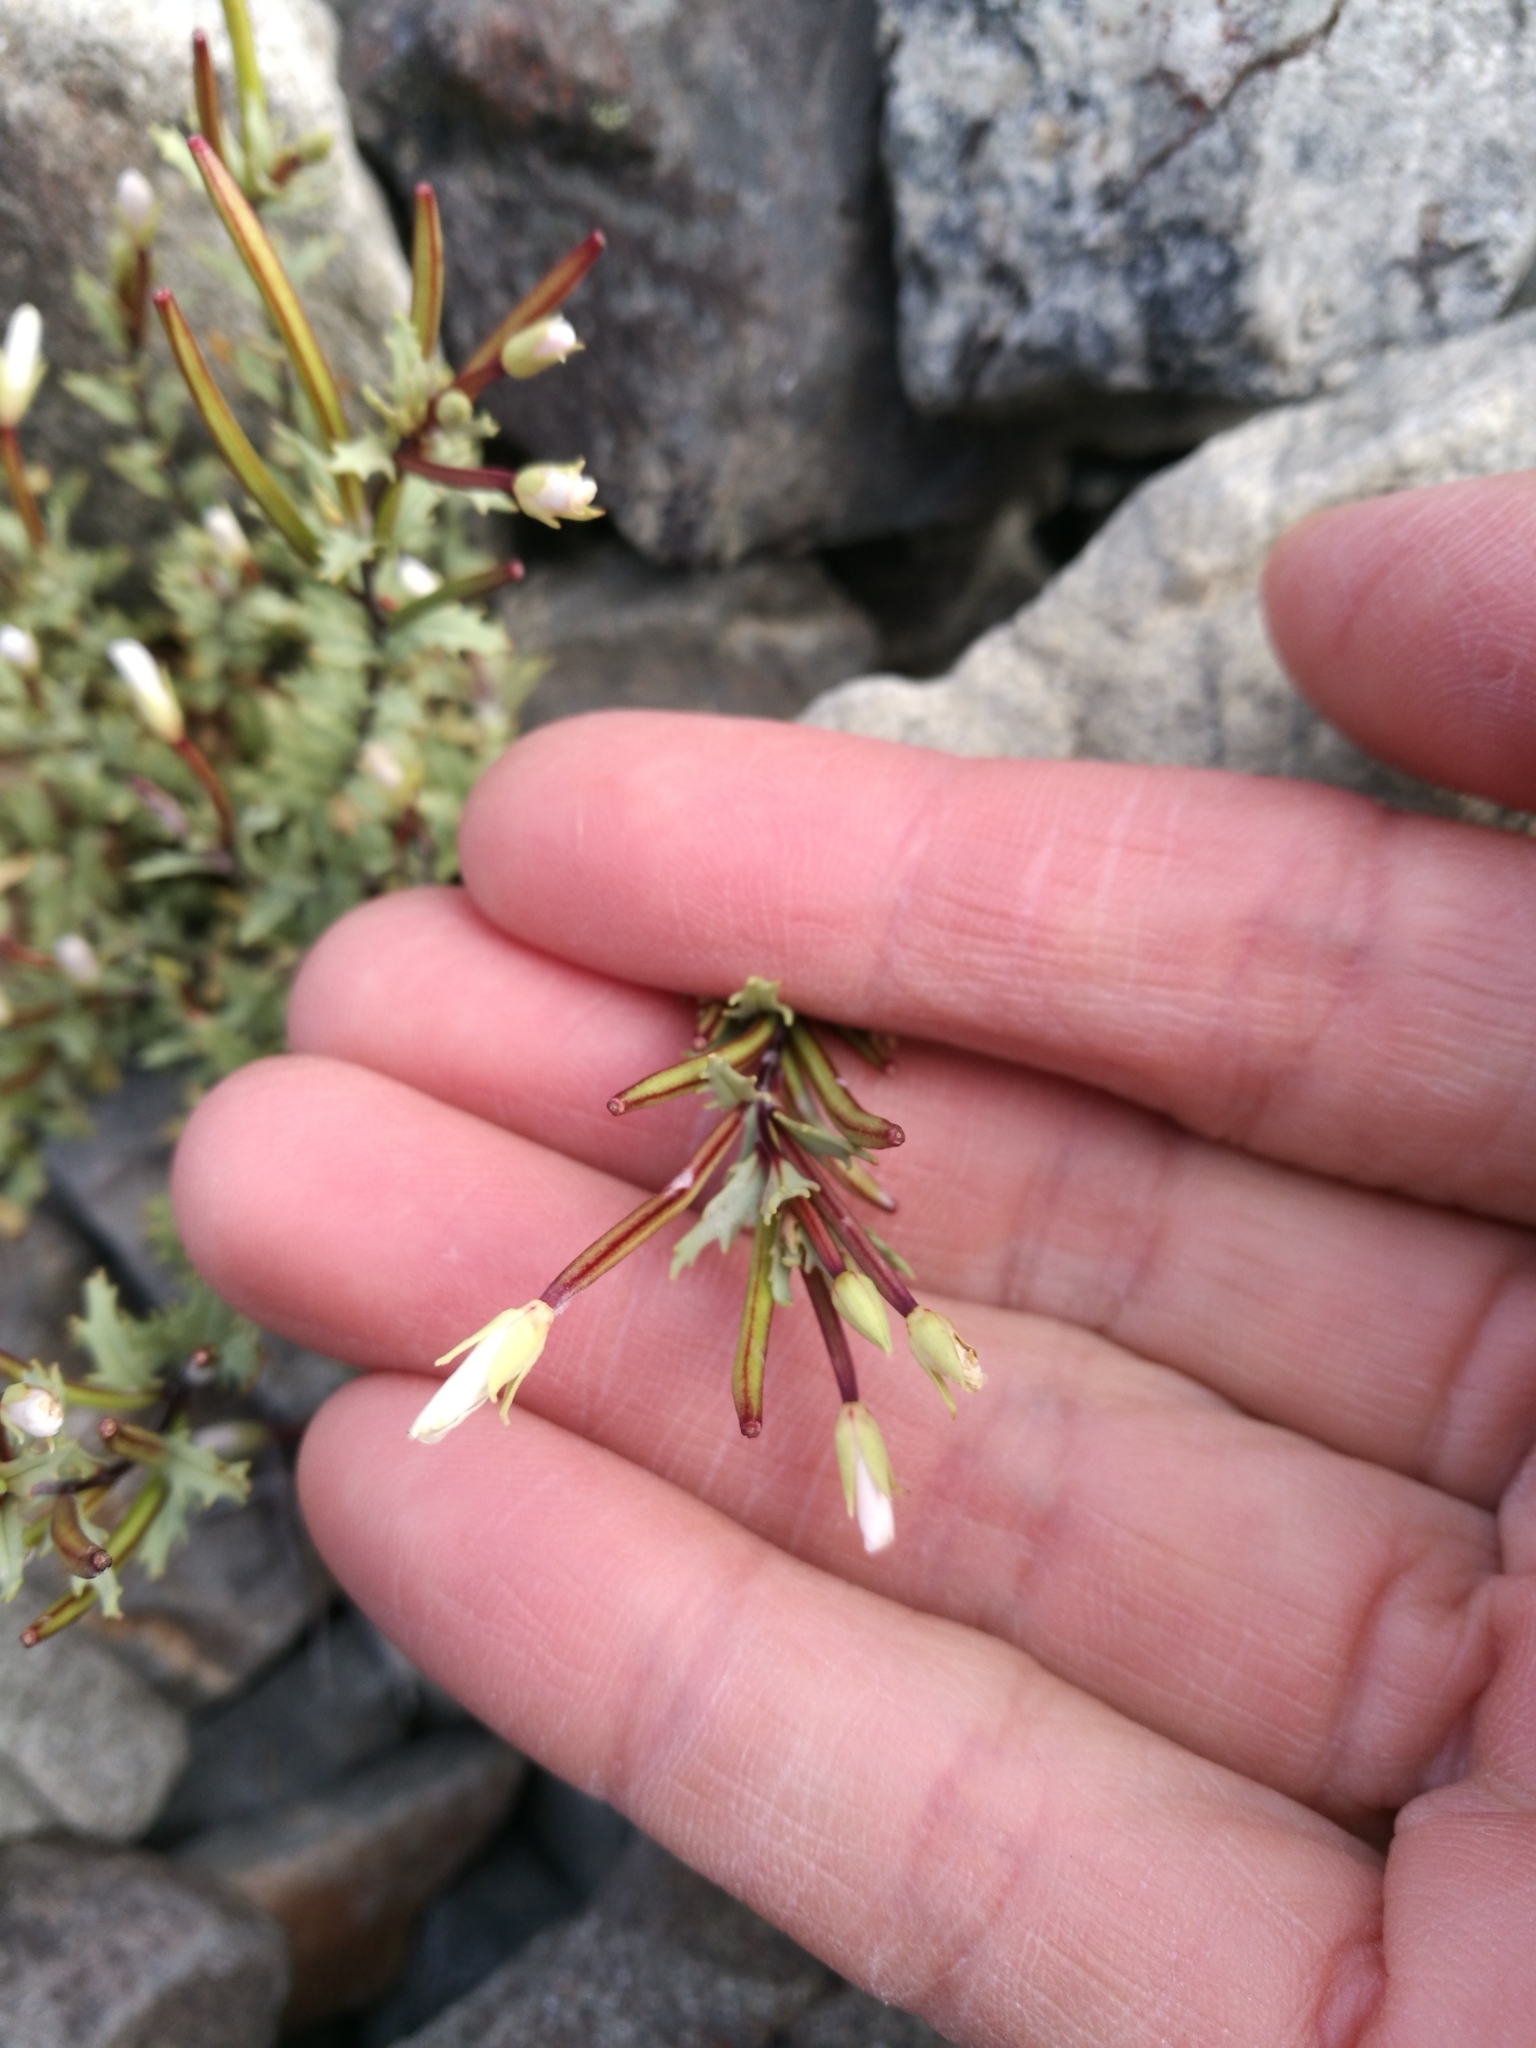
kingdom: Plantae
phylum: Tracheophyta
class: Magnoliopsida
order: Myrtales
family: Onagraceae
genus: Epilobium
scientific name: Epilobium melanocaulon
